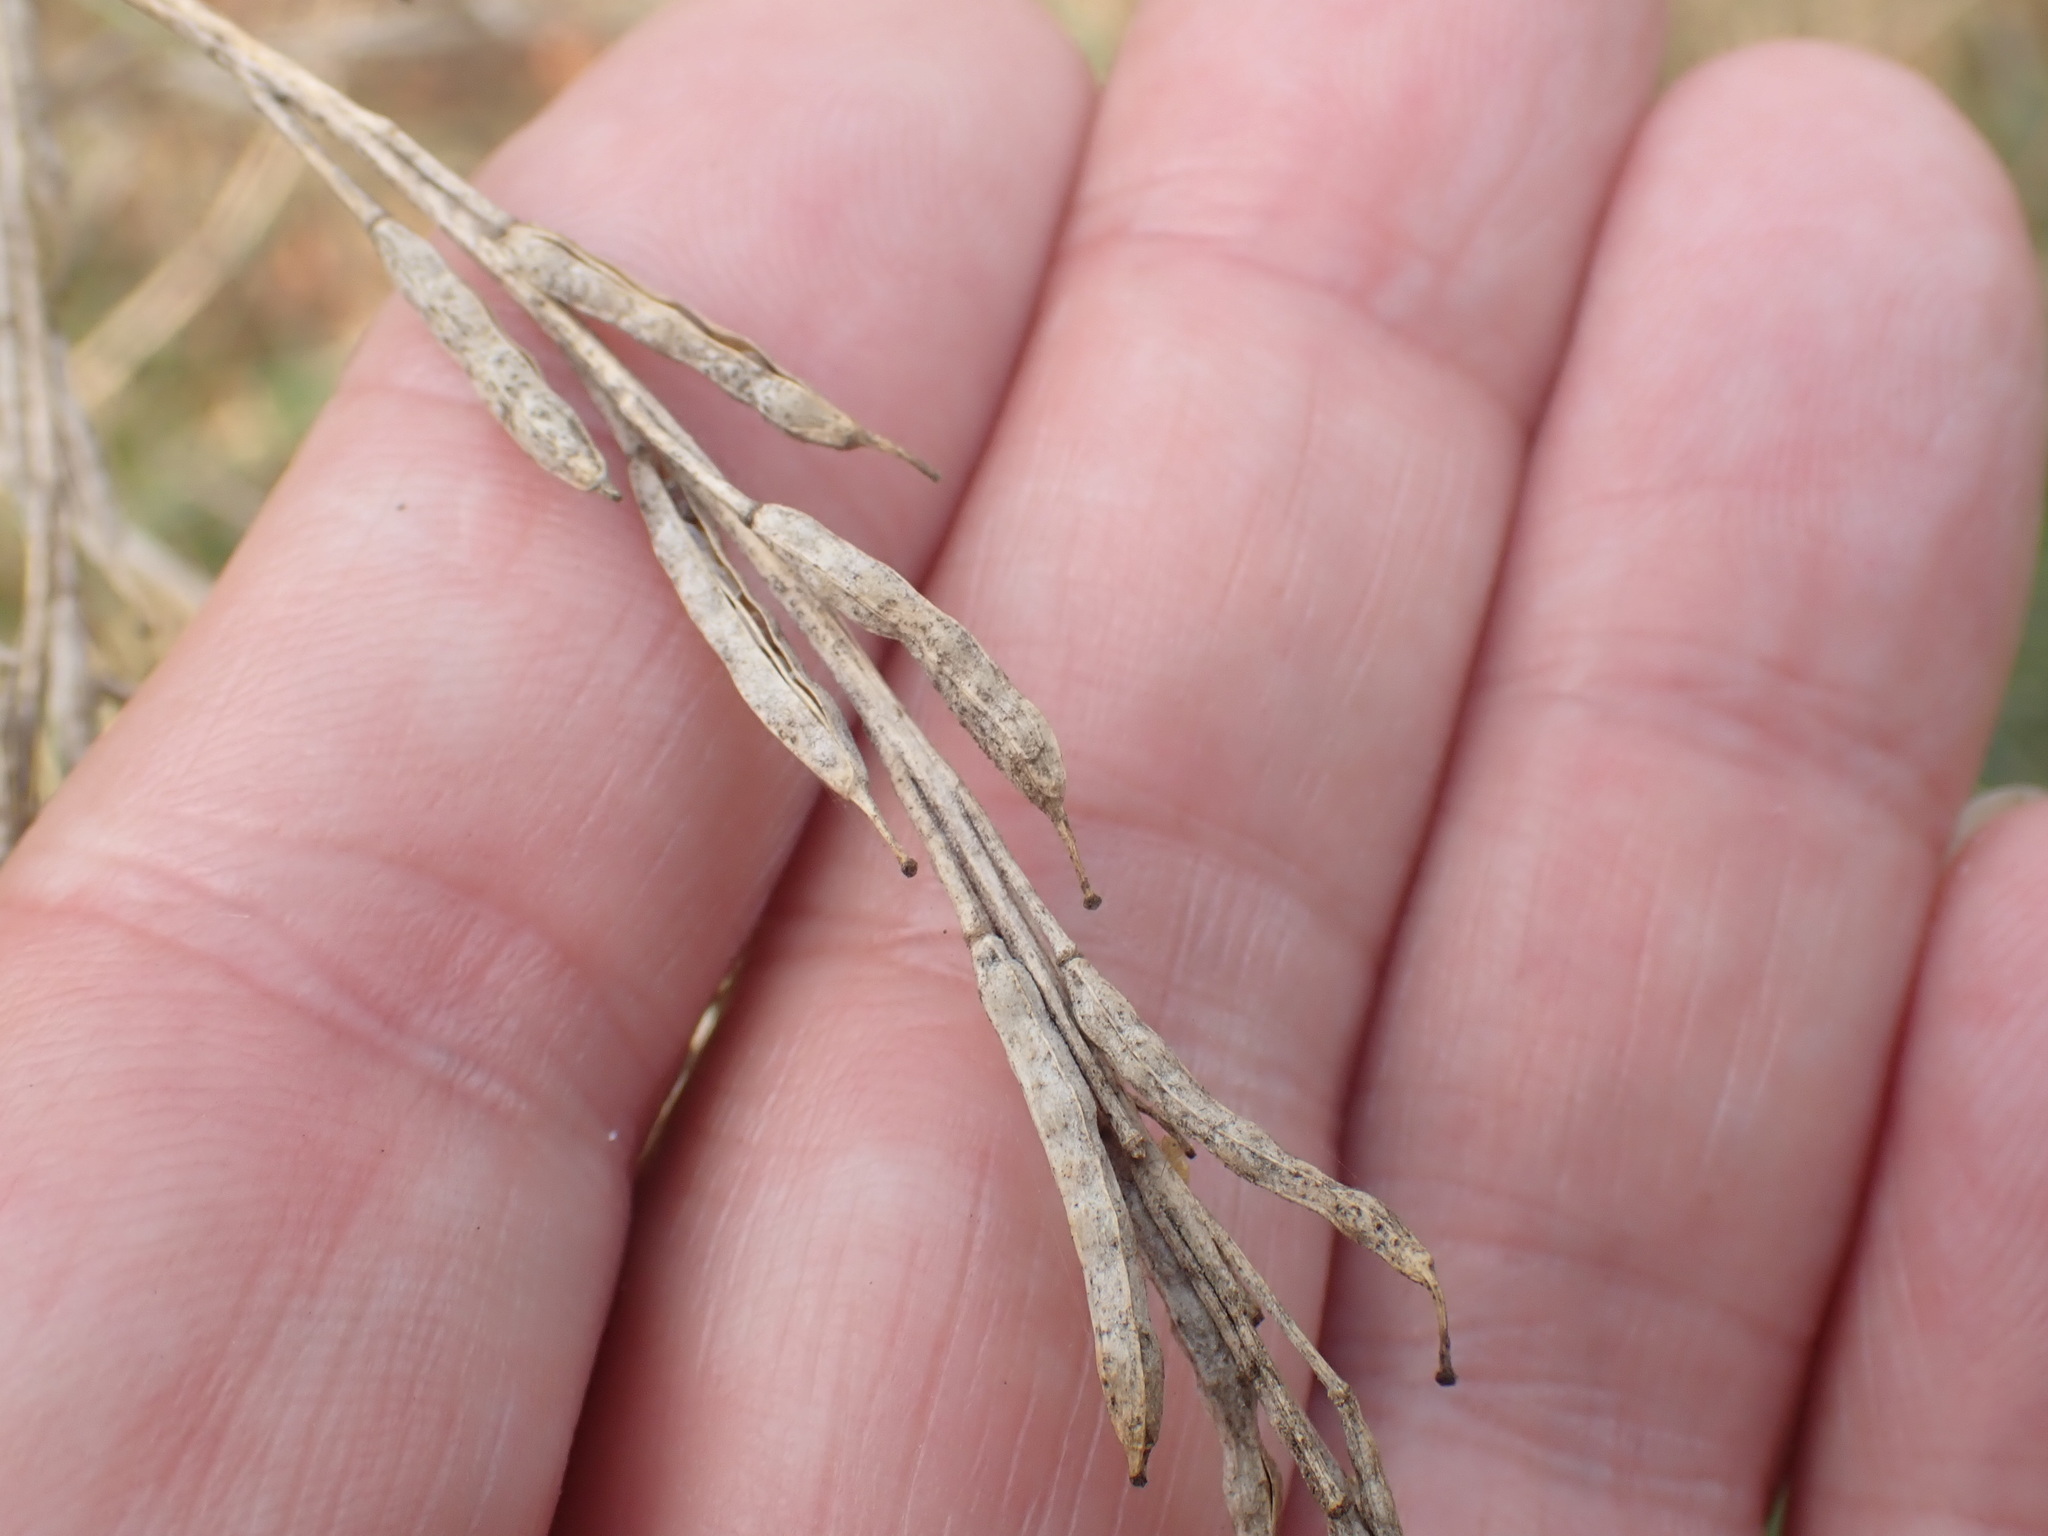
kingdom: Plantae
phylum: Tracheophyta
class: Magnoliopsida
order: Brassicales
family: Brassicaceae
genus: Brassica
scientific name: Brassica nigra
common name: Black mustard
